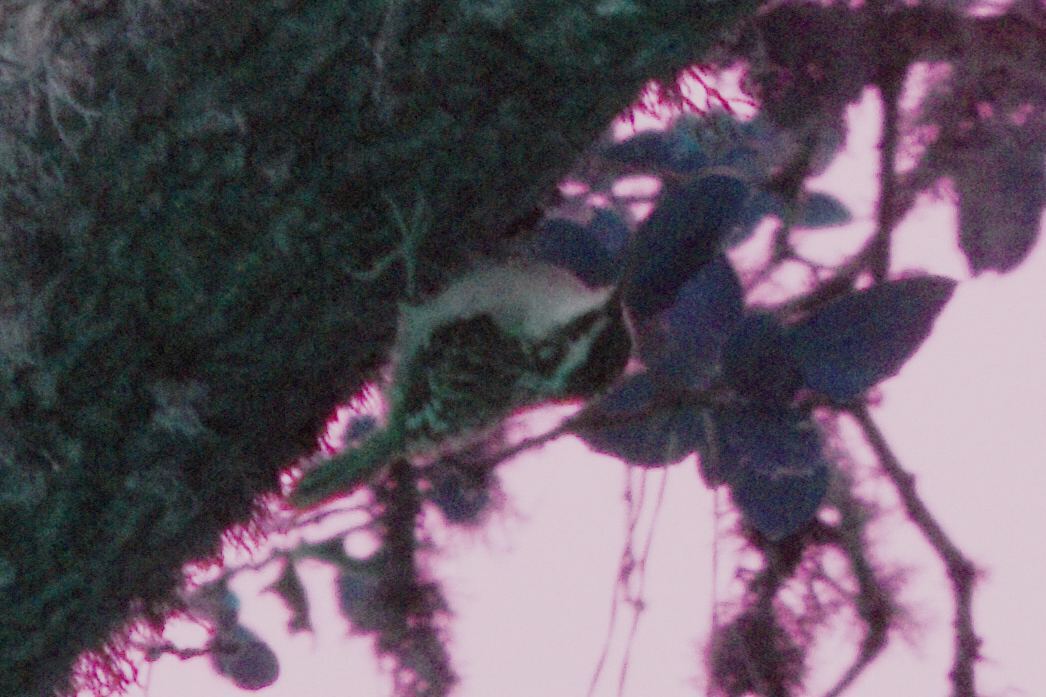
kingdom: Animalia
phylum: Chordata
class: Aves
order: Passeriformes
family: Certhiidae
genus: Certhia
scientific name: Certhia americana
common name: Brown creeper
